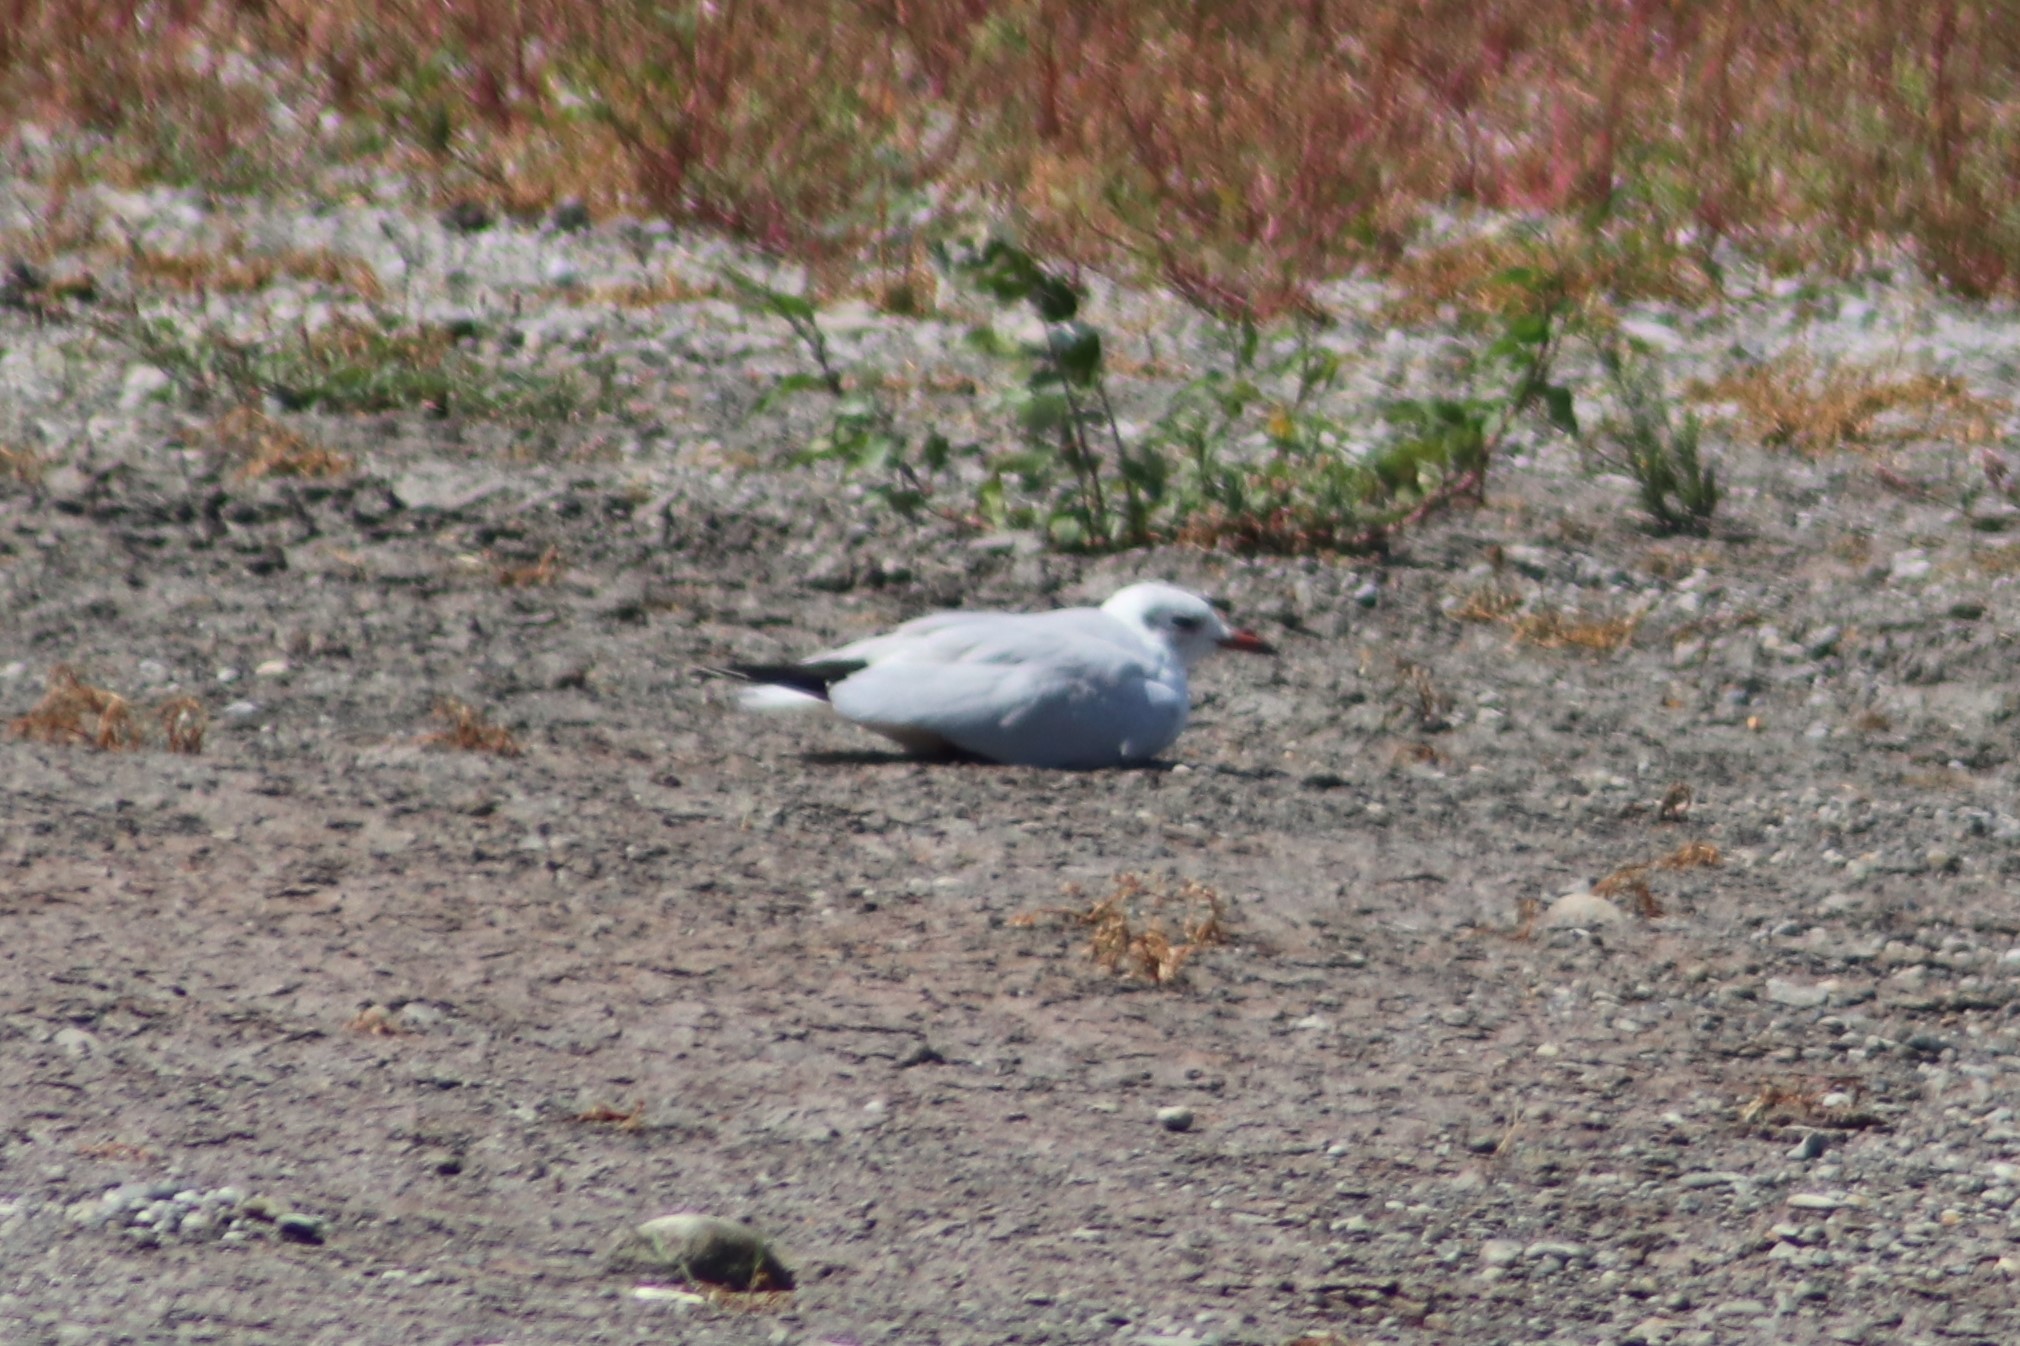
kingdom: Animalia
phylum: Chordata
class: Aves
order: Charadriiformes
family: Laridae
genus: Chroicocephalus
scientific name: Chroicocephalus ridibundus
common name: Black-headed gull
